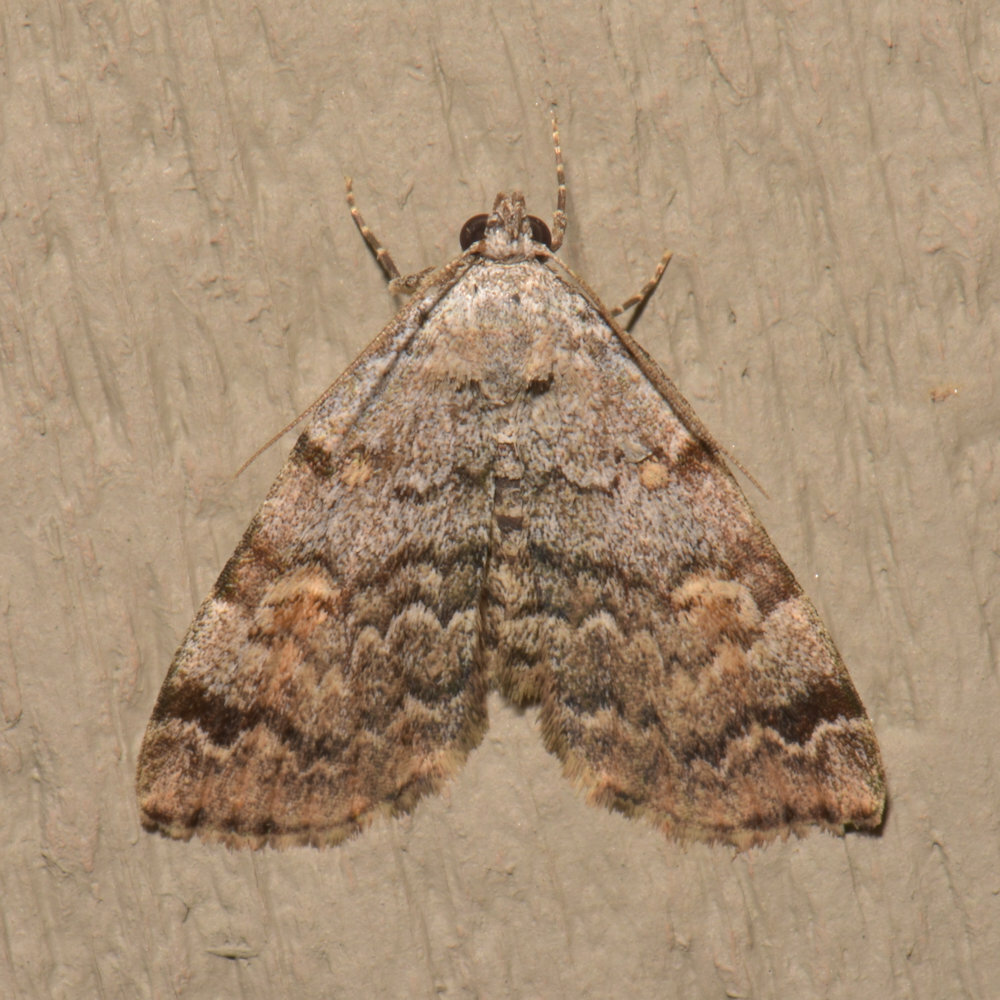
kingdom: Animalia
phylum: Arthropoda
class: Insecta
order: Lepidoptera
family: Erebidae
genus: Idia
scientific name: Idia americalis
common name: American idia moth
